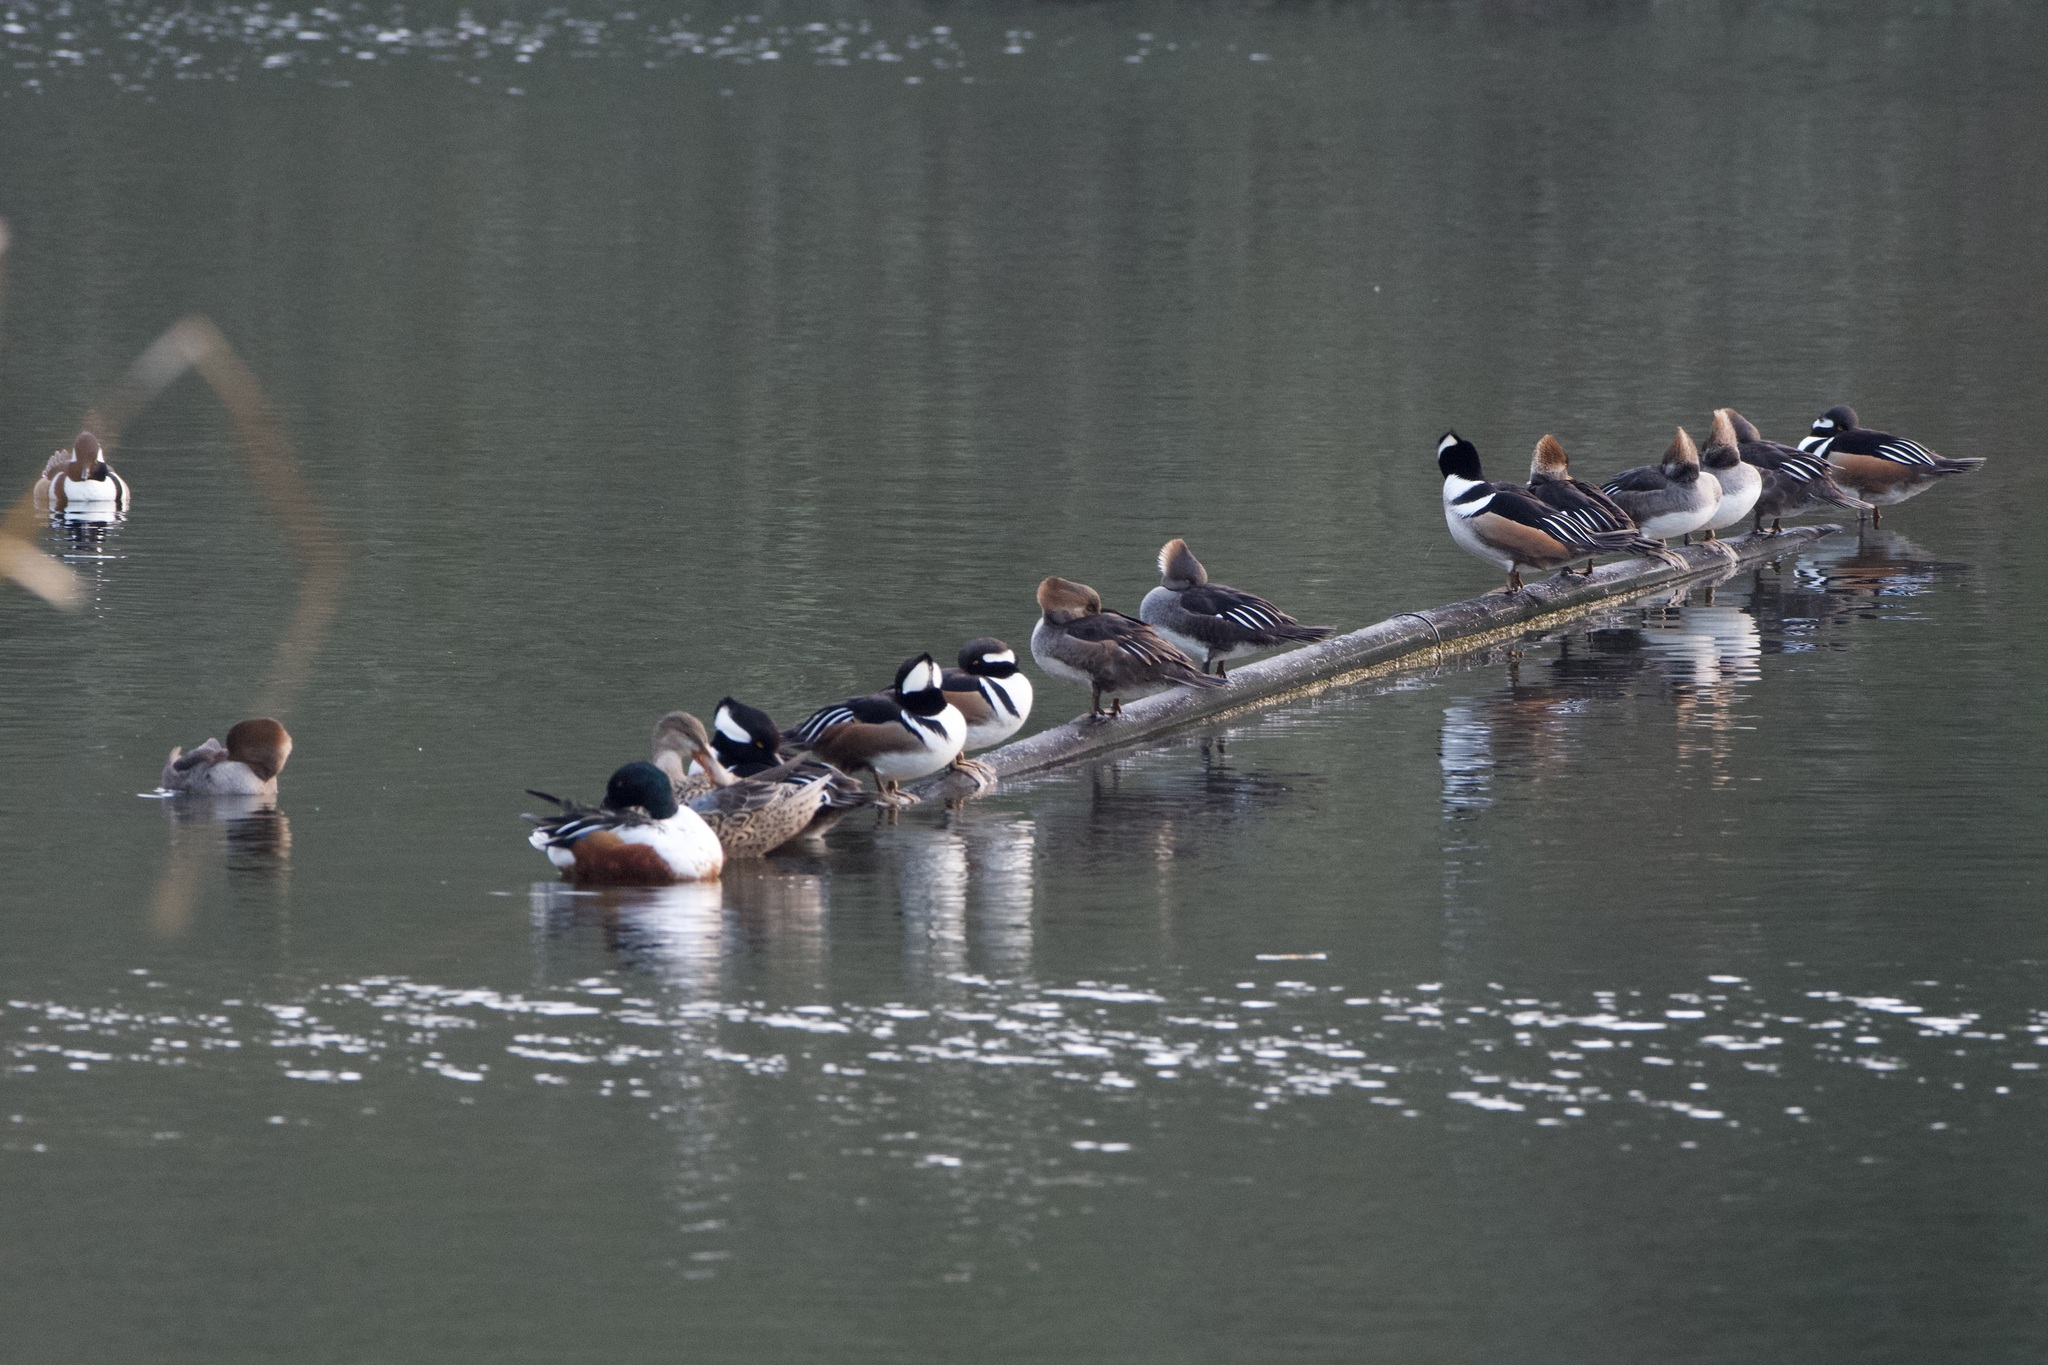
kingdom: Animalia
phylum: Chordata
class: Aves
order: Anseriformes
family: Anatidae
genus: Lophodytes
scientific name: Lophodytes cucullatus
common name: Hooded merganser
